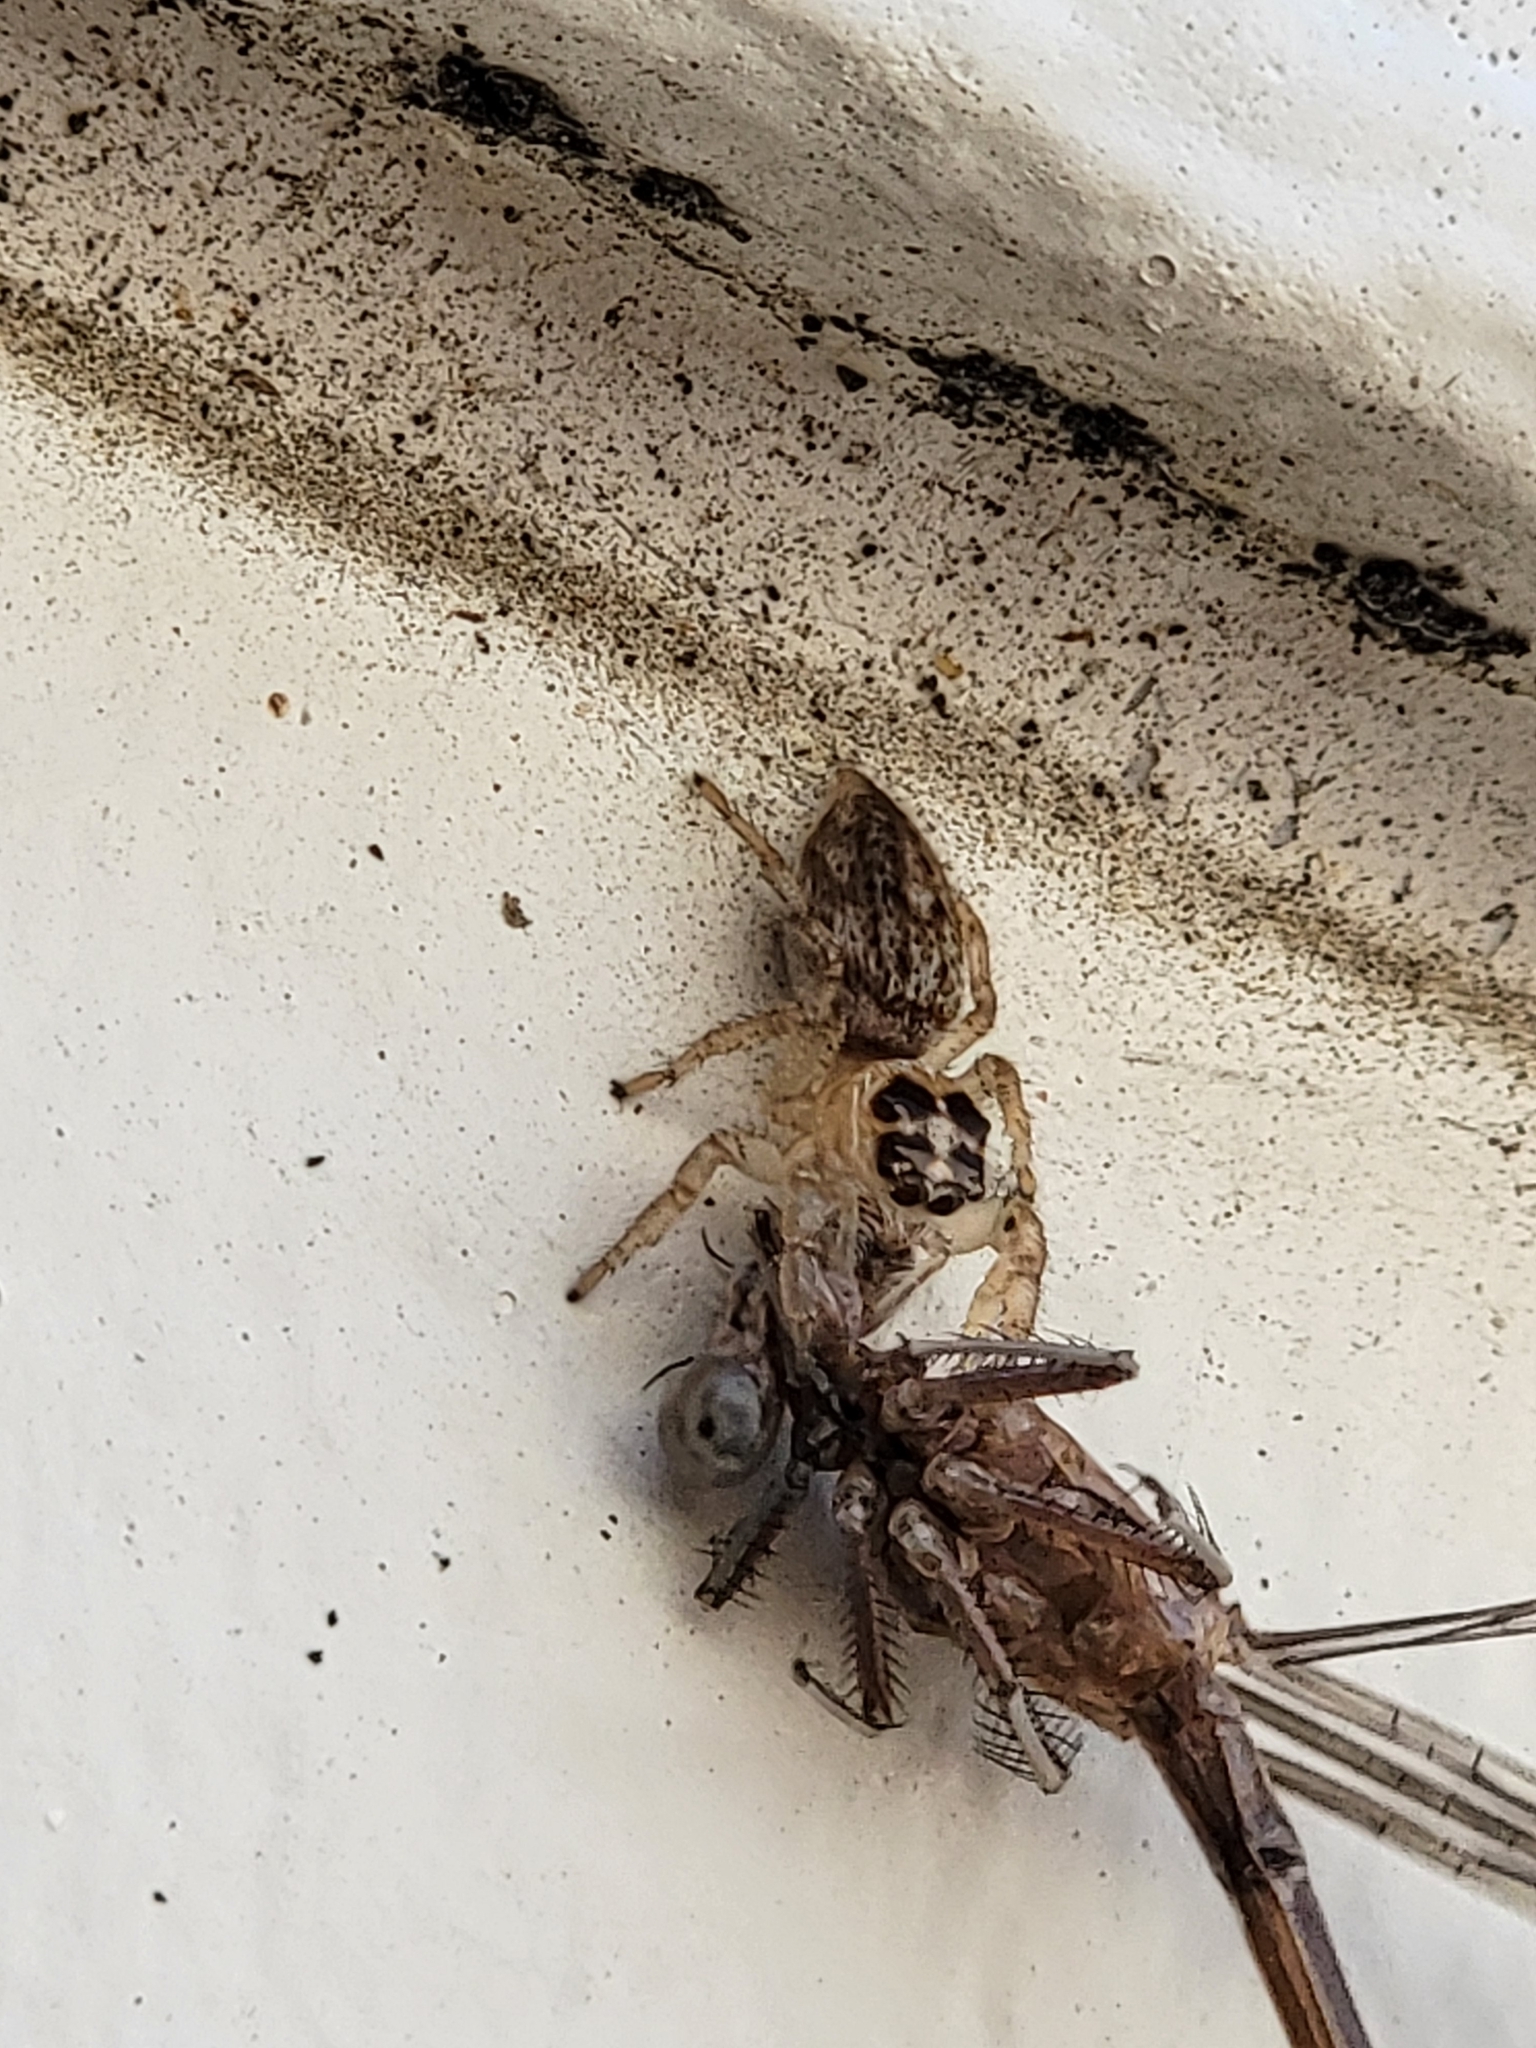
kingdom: Animalia
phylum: Arthropoda
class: Arachnida
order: Araneae
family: Salticidae
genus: Colonus
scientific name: Colonus hesperus
